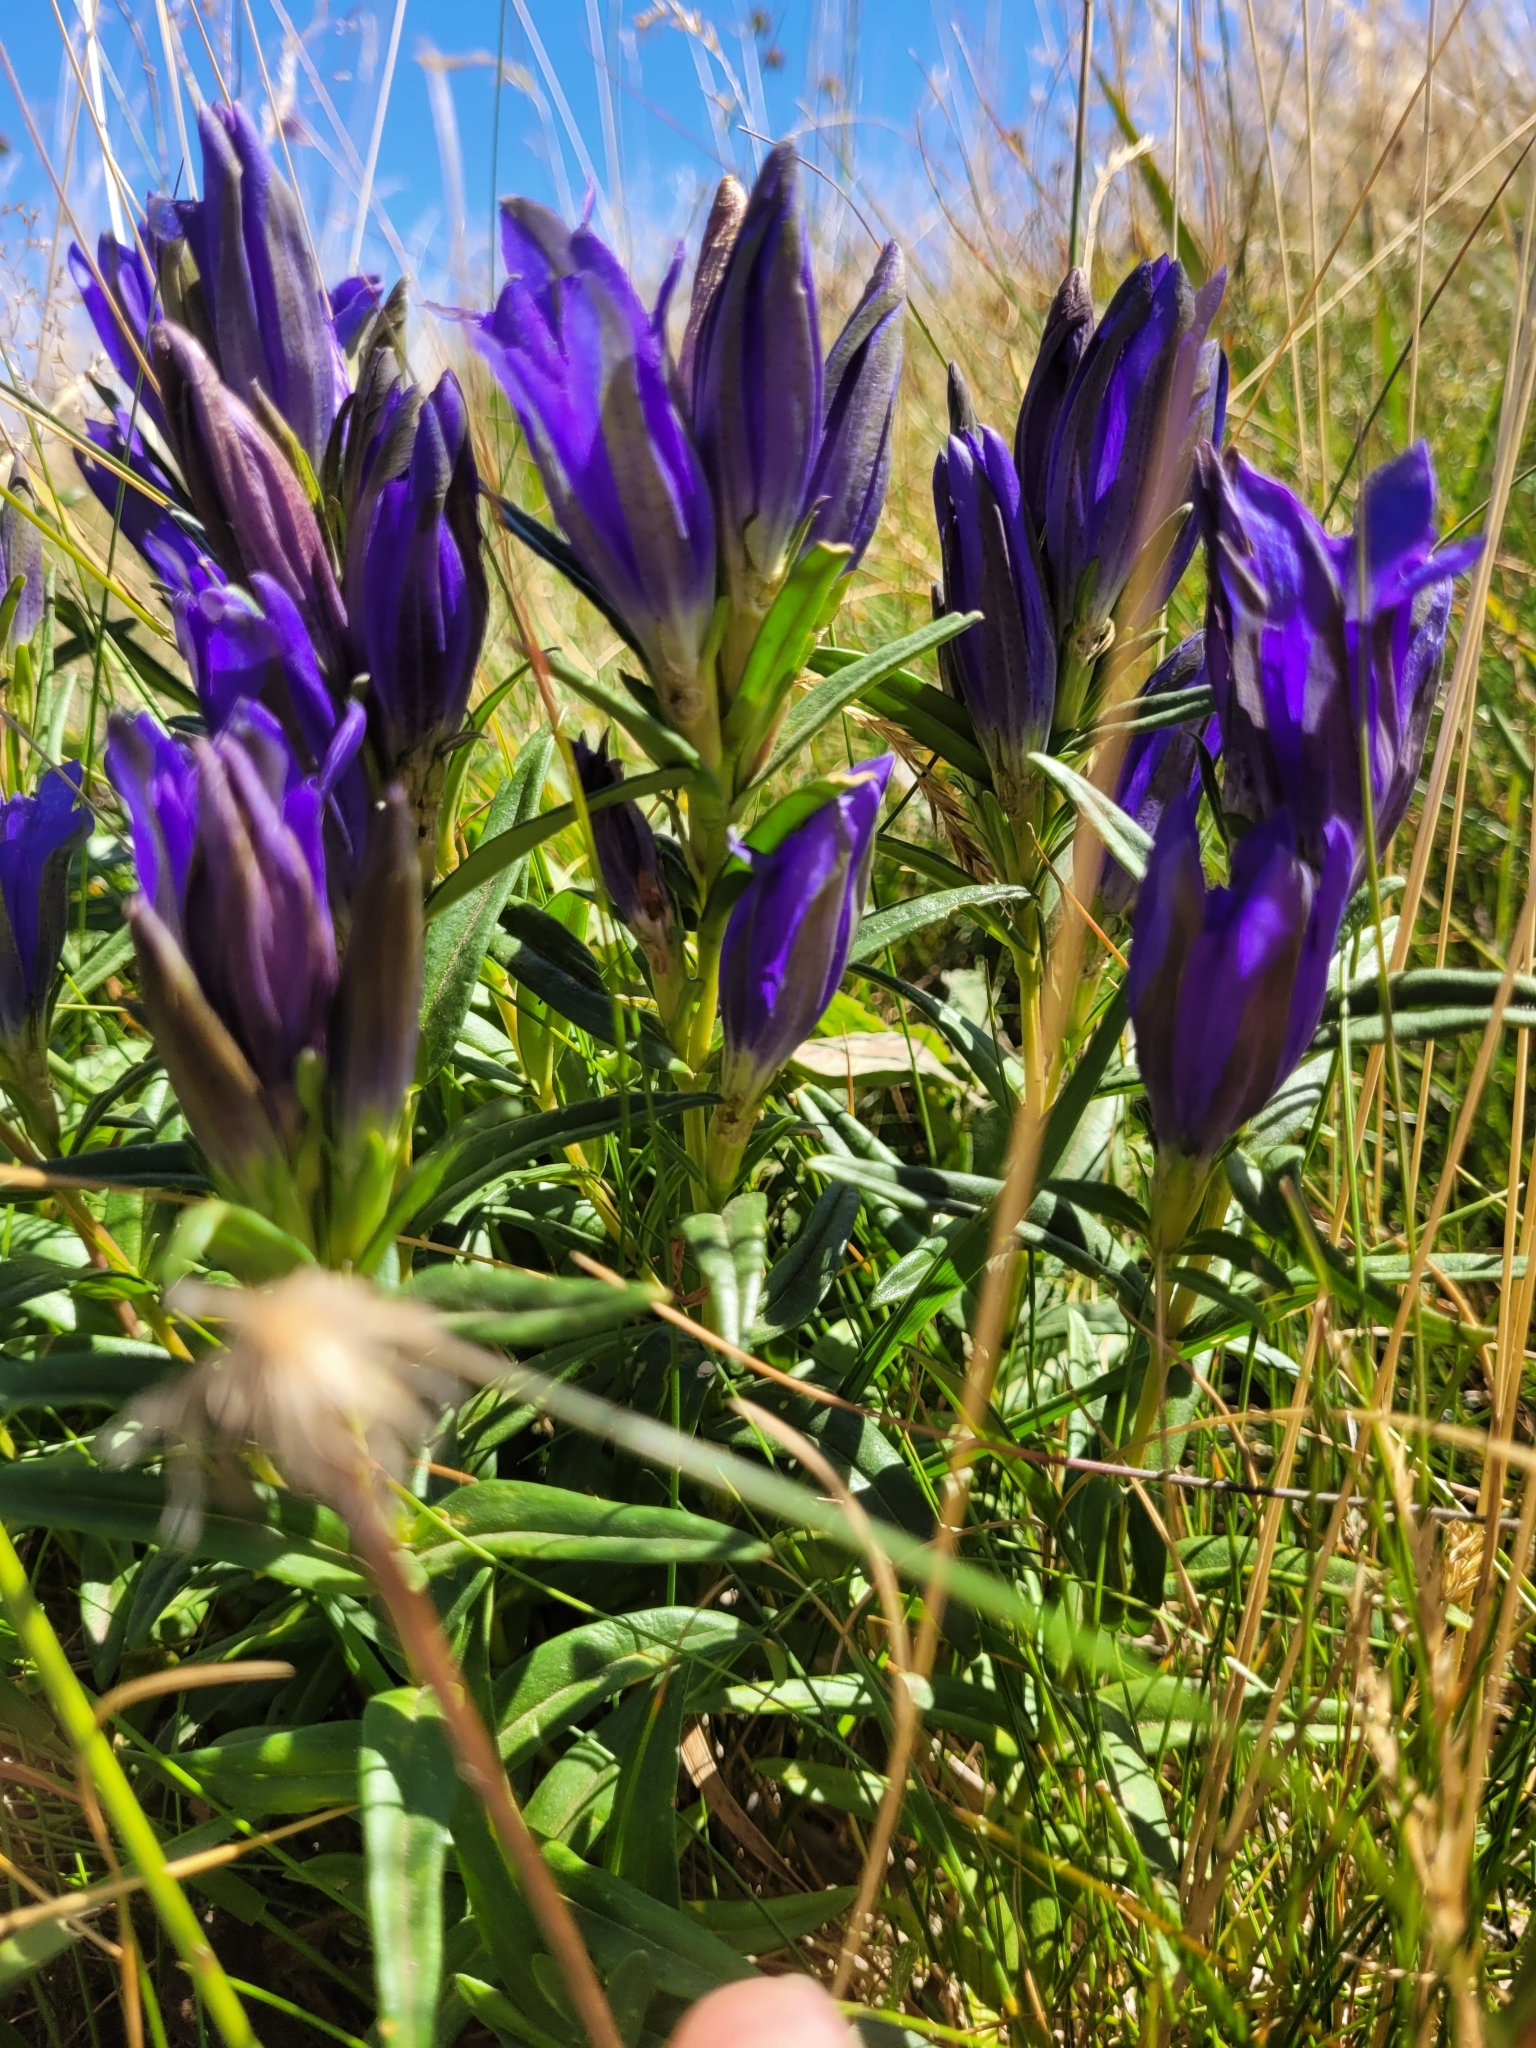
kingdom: Plantae
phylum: Tracheophyta
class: Magnoliopsida
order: Gentianales
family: Gentianaceae
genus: Gentiana
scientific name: Gentiana pneumonanthe
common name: Marsh gentian
